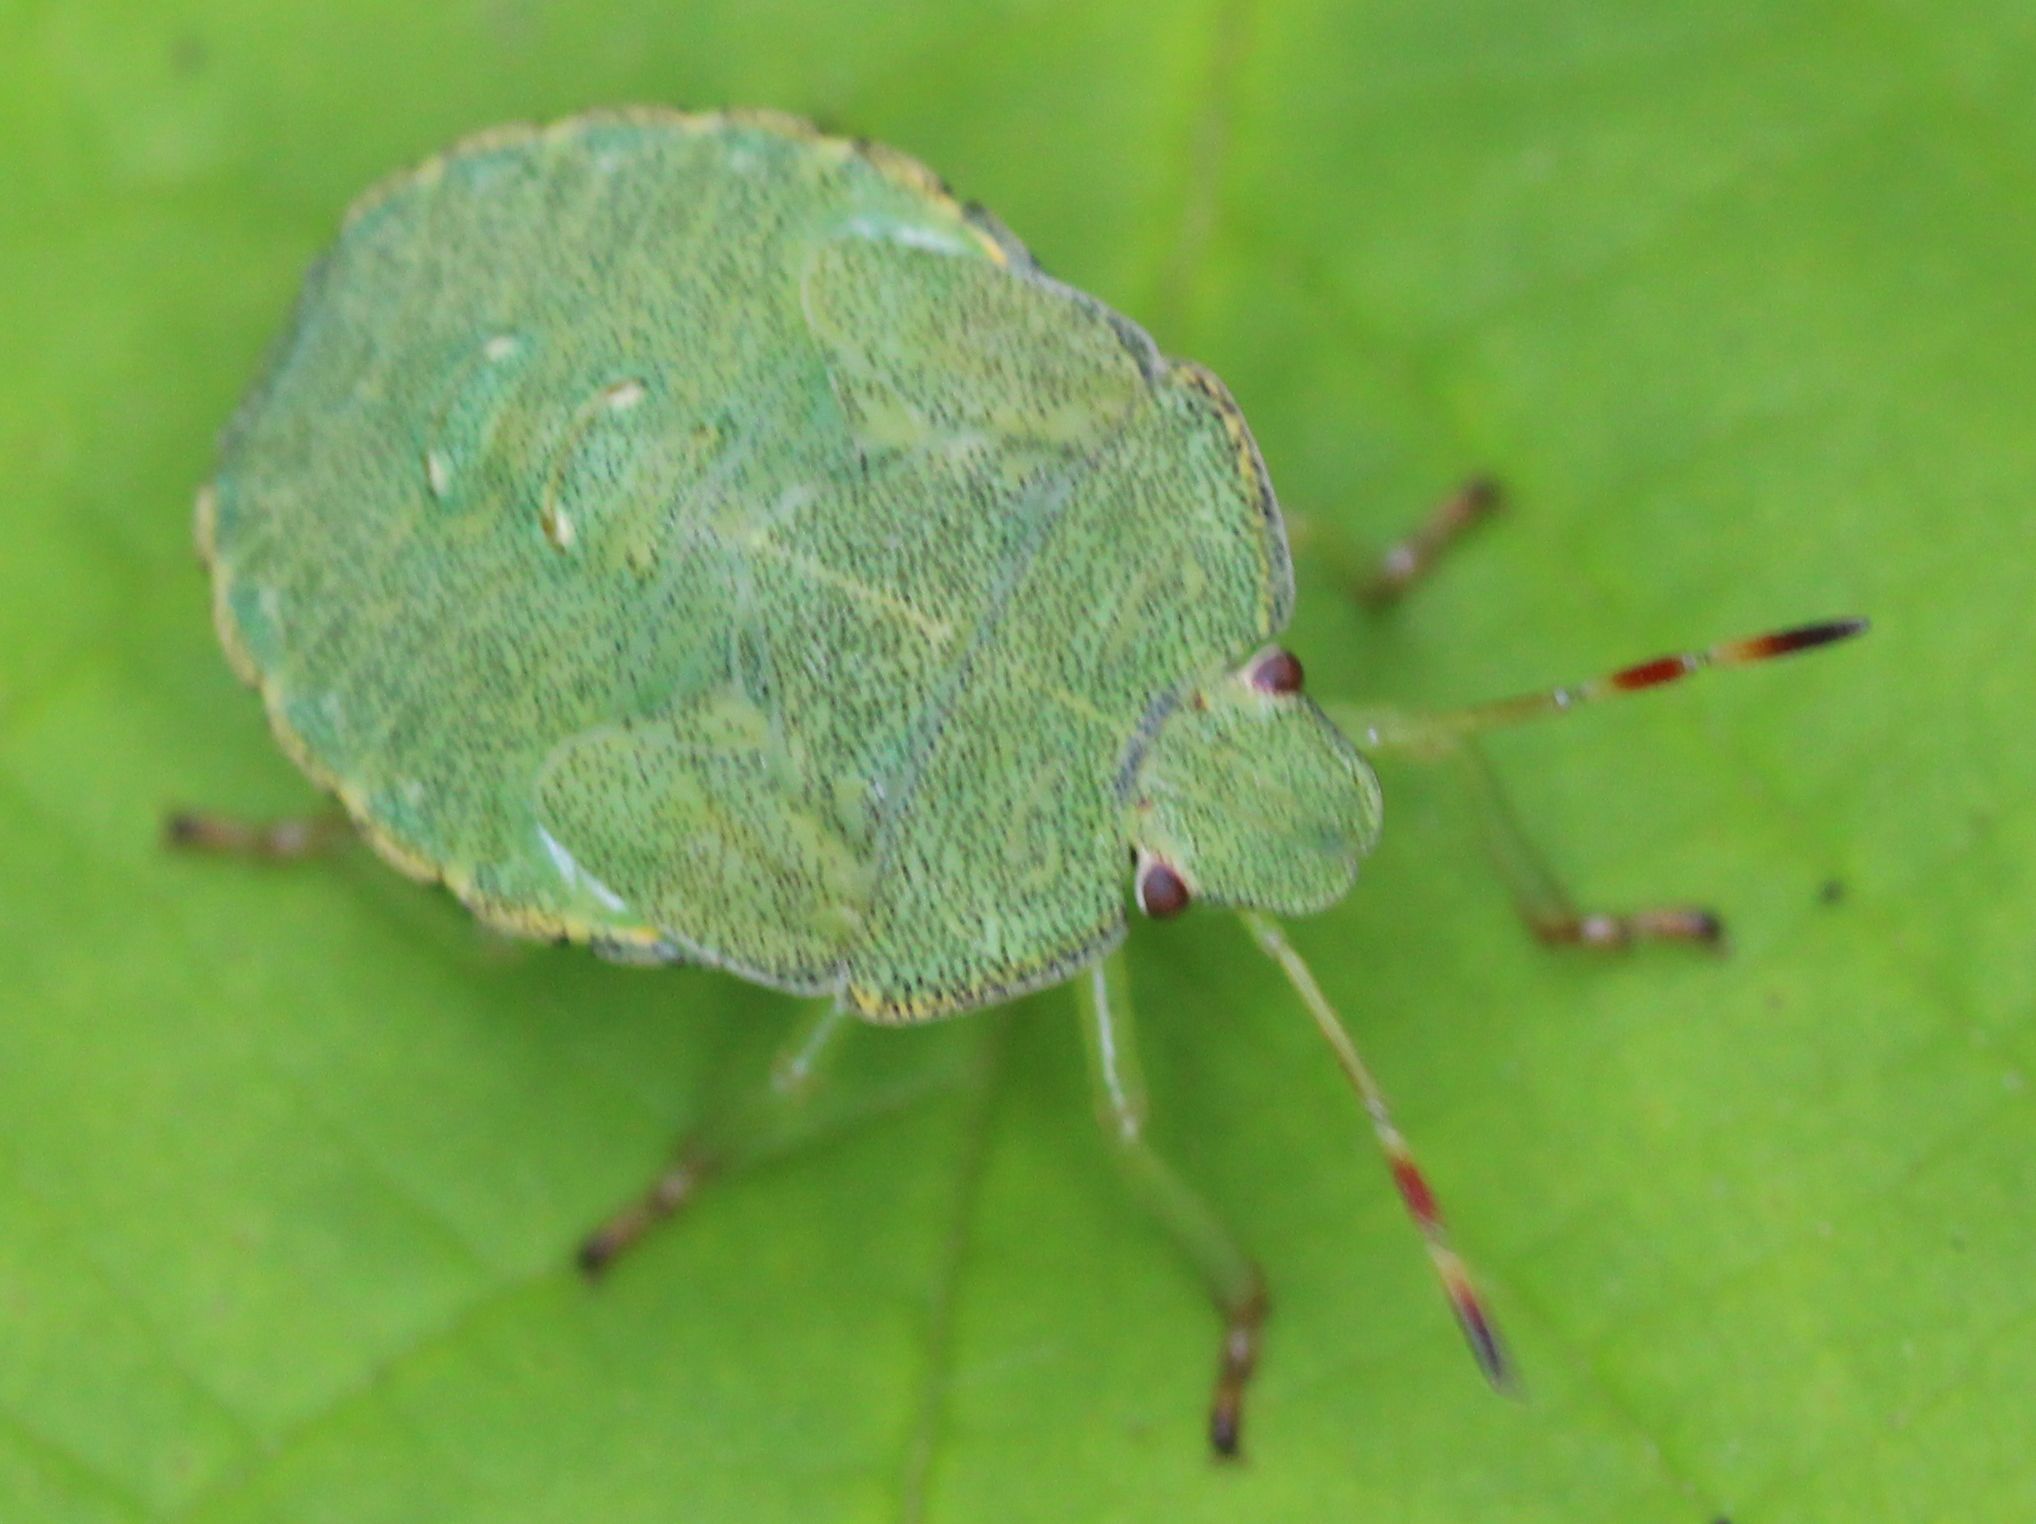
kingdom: Animalia
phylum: Arthropoda
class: Insecta
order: Hemiptera
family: Pentatomidae
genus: Palomena
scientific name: Palomena prasina
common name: Green shieldbug
